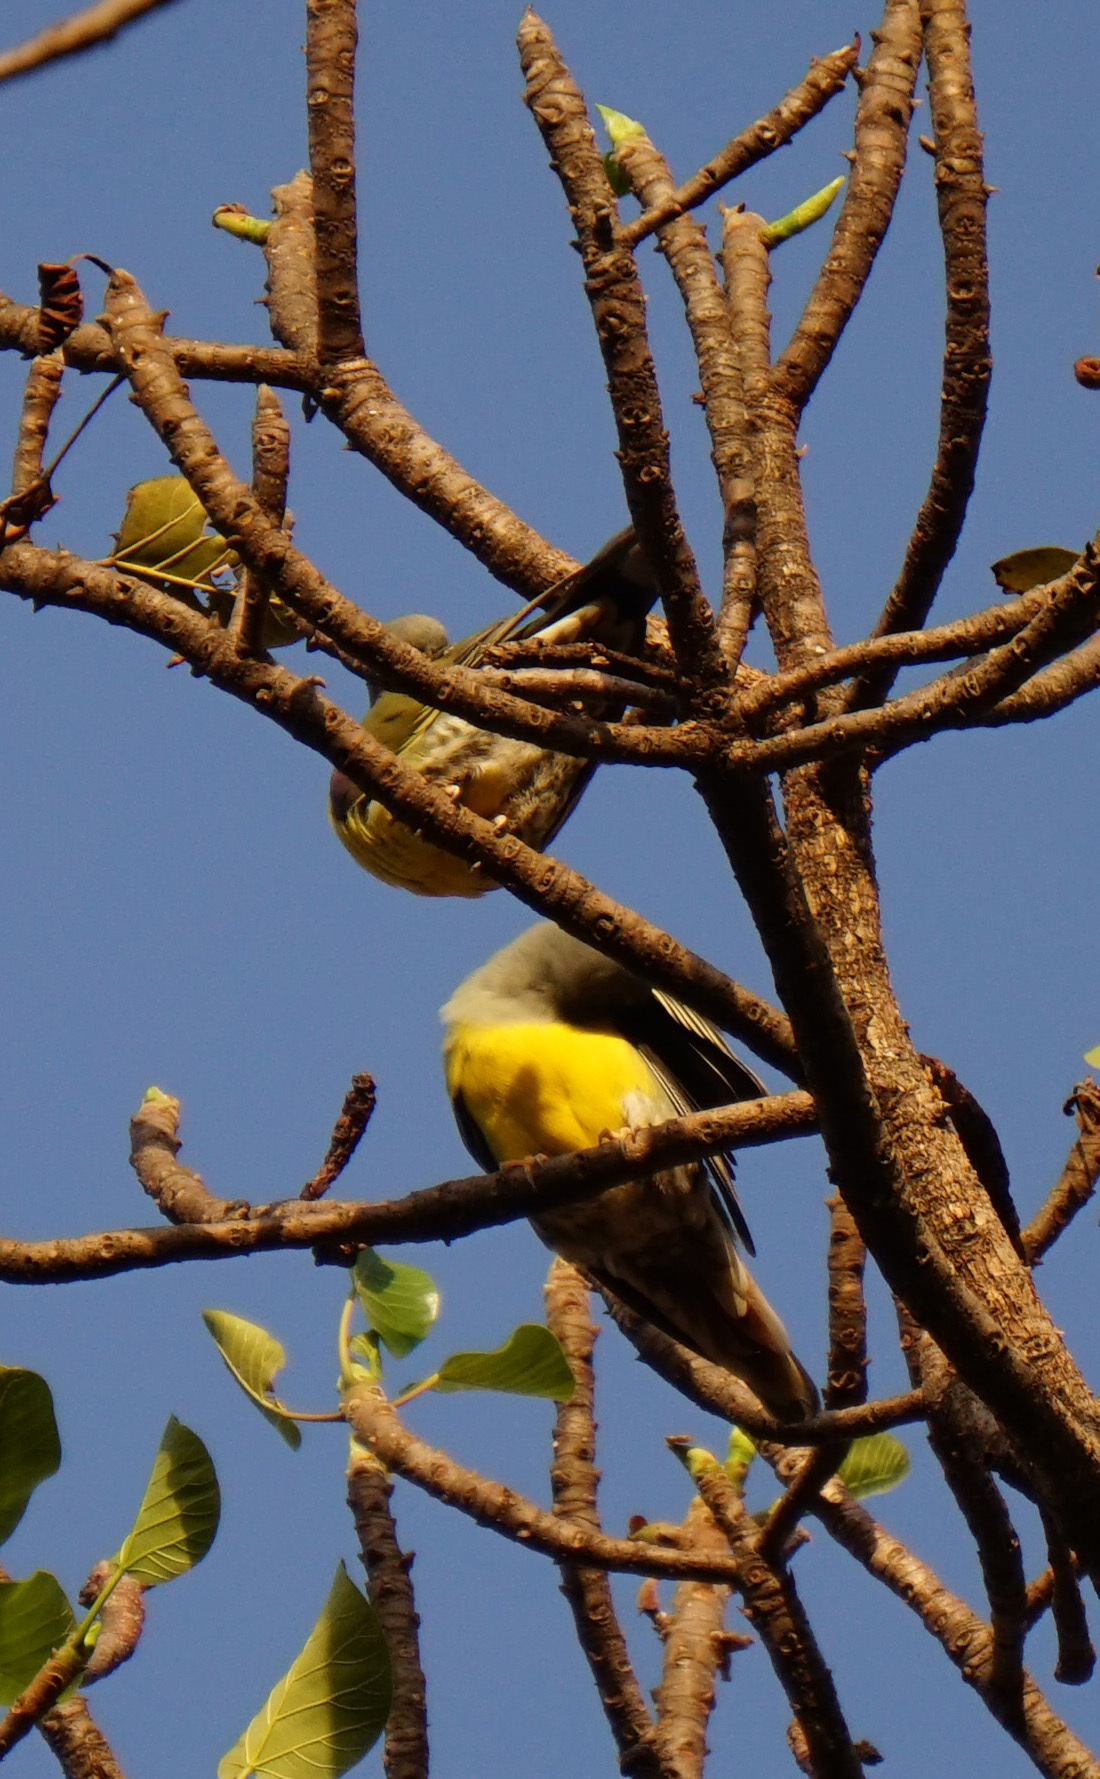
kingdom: Animalia
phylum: Chordata
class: Aves
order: Columbiformes
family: Columbidae
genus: Treron
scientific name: Treron waalia
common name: Bruce's green pigeon
